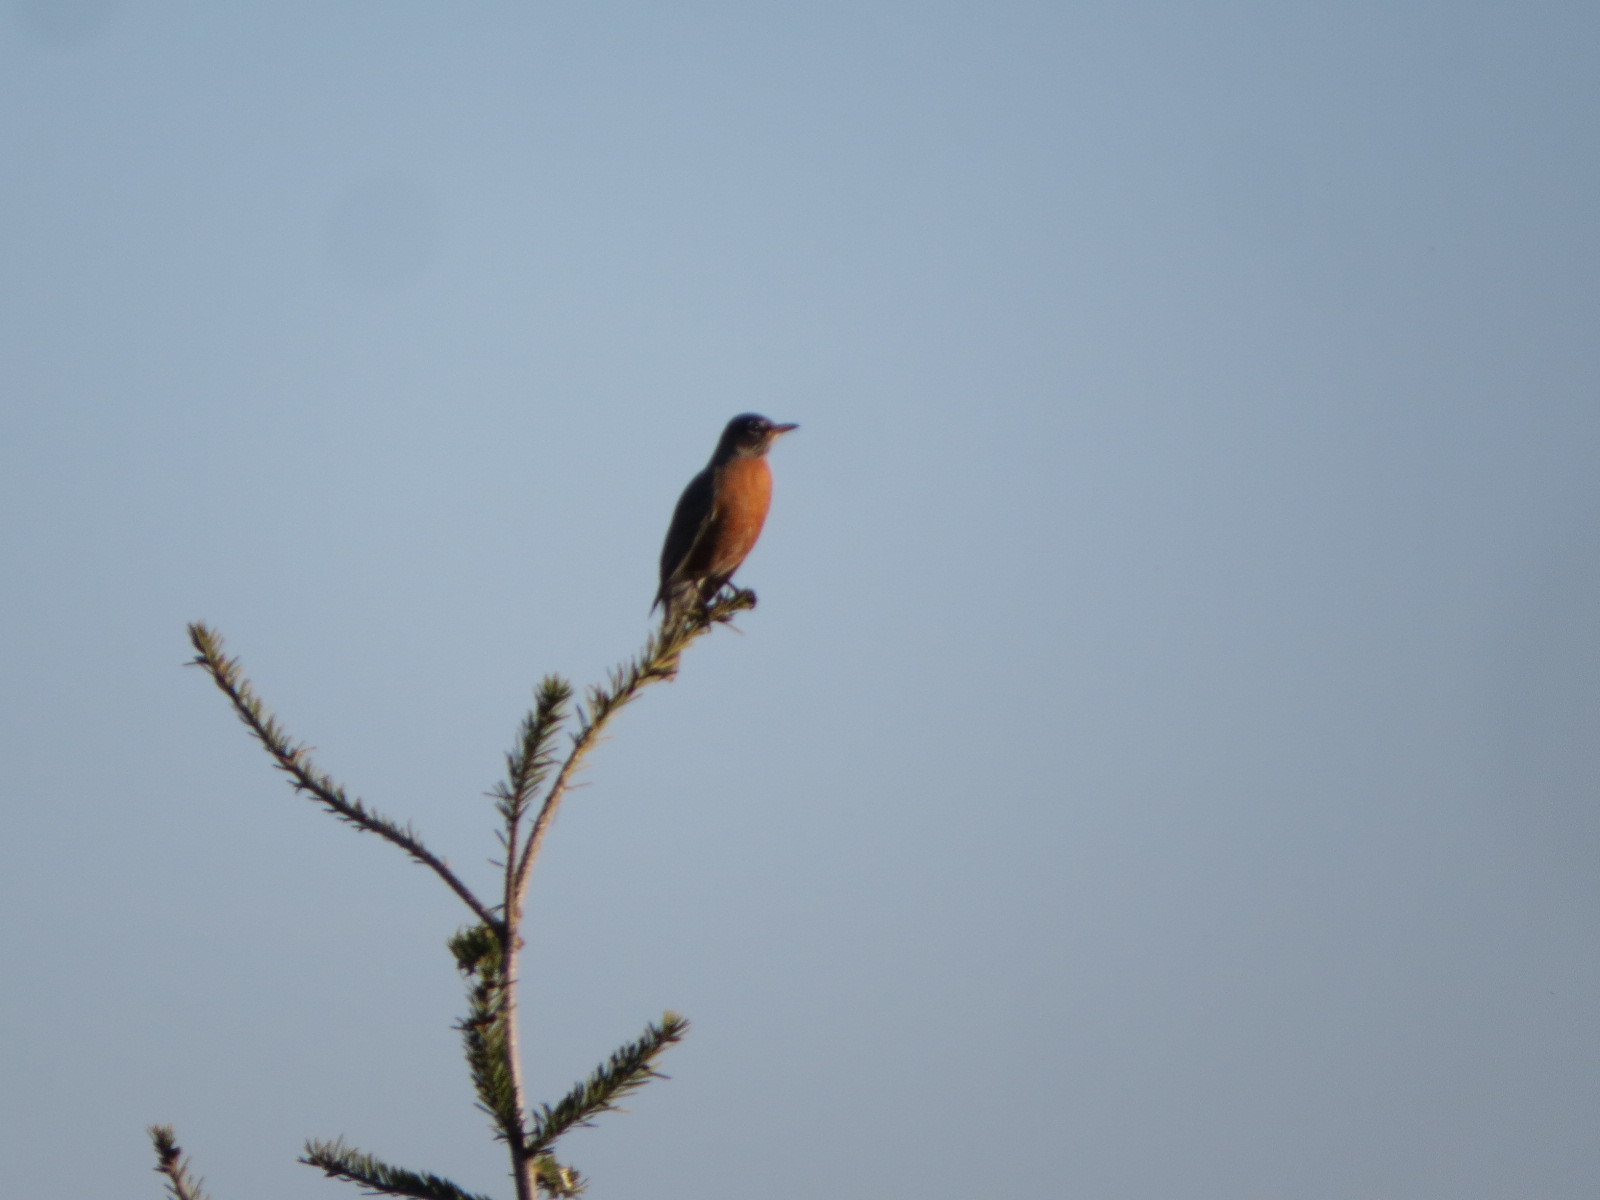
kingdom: Animalia
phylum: Chordata
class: Aves
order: Passeriformes
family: Turdidae
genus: Turdus
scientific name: Turdus migratorius
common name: American robin
